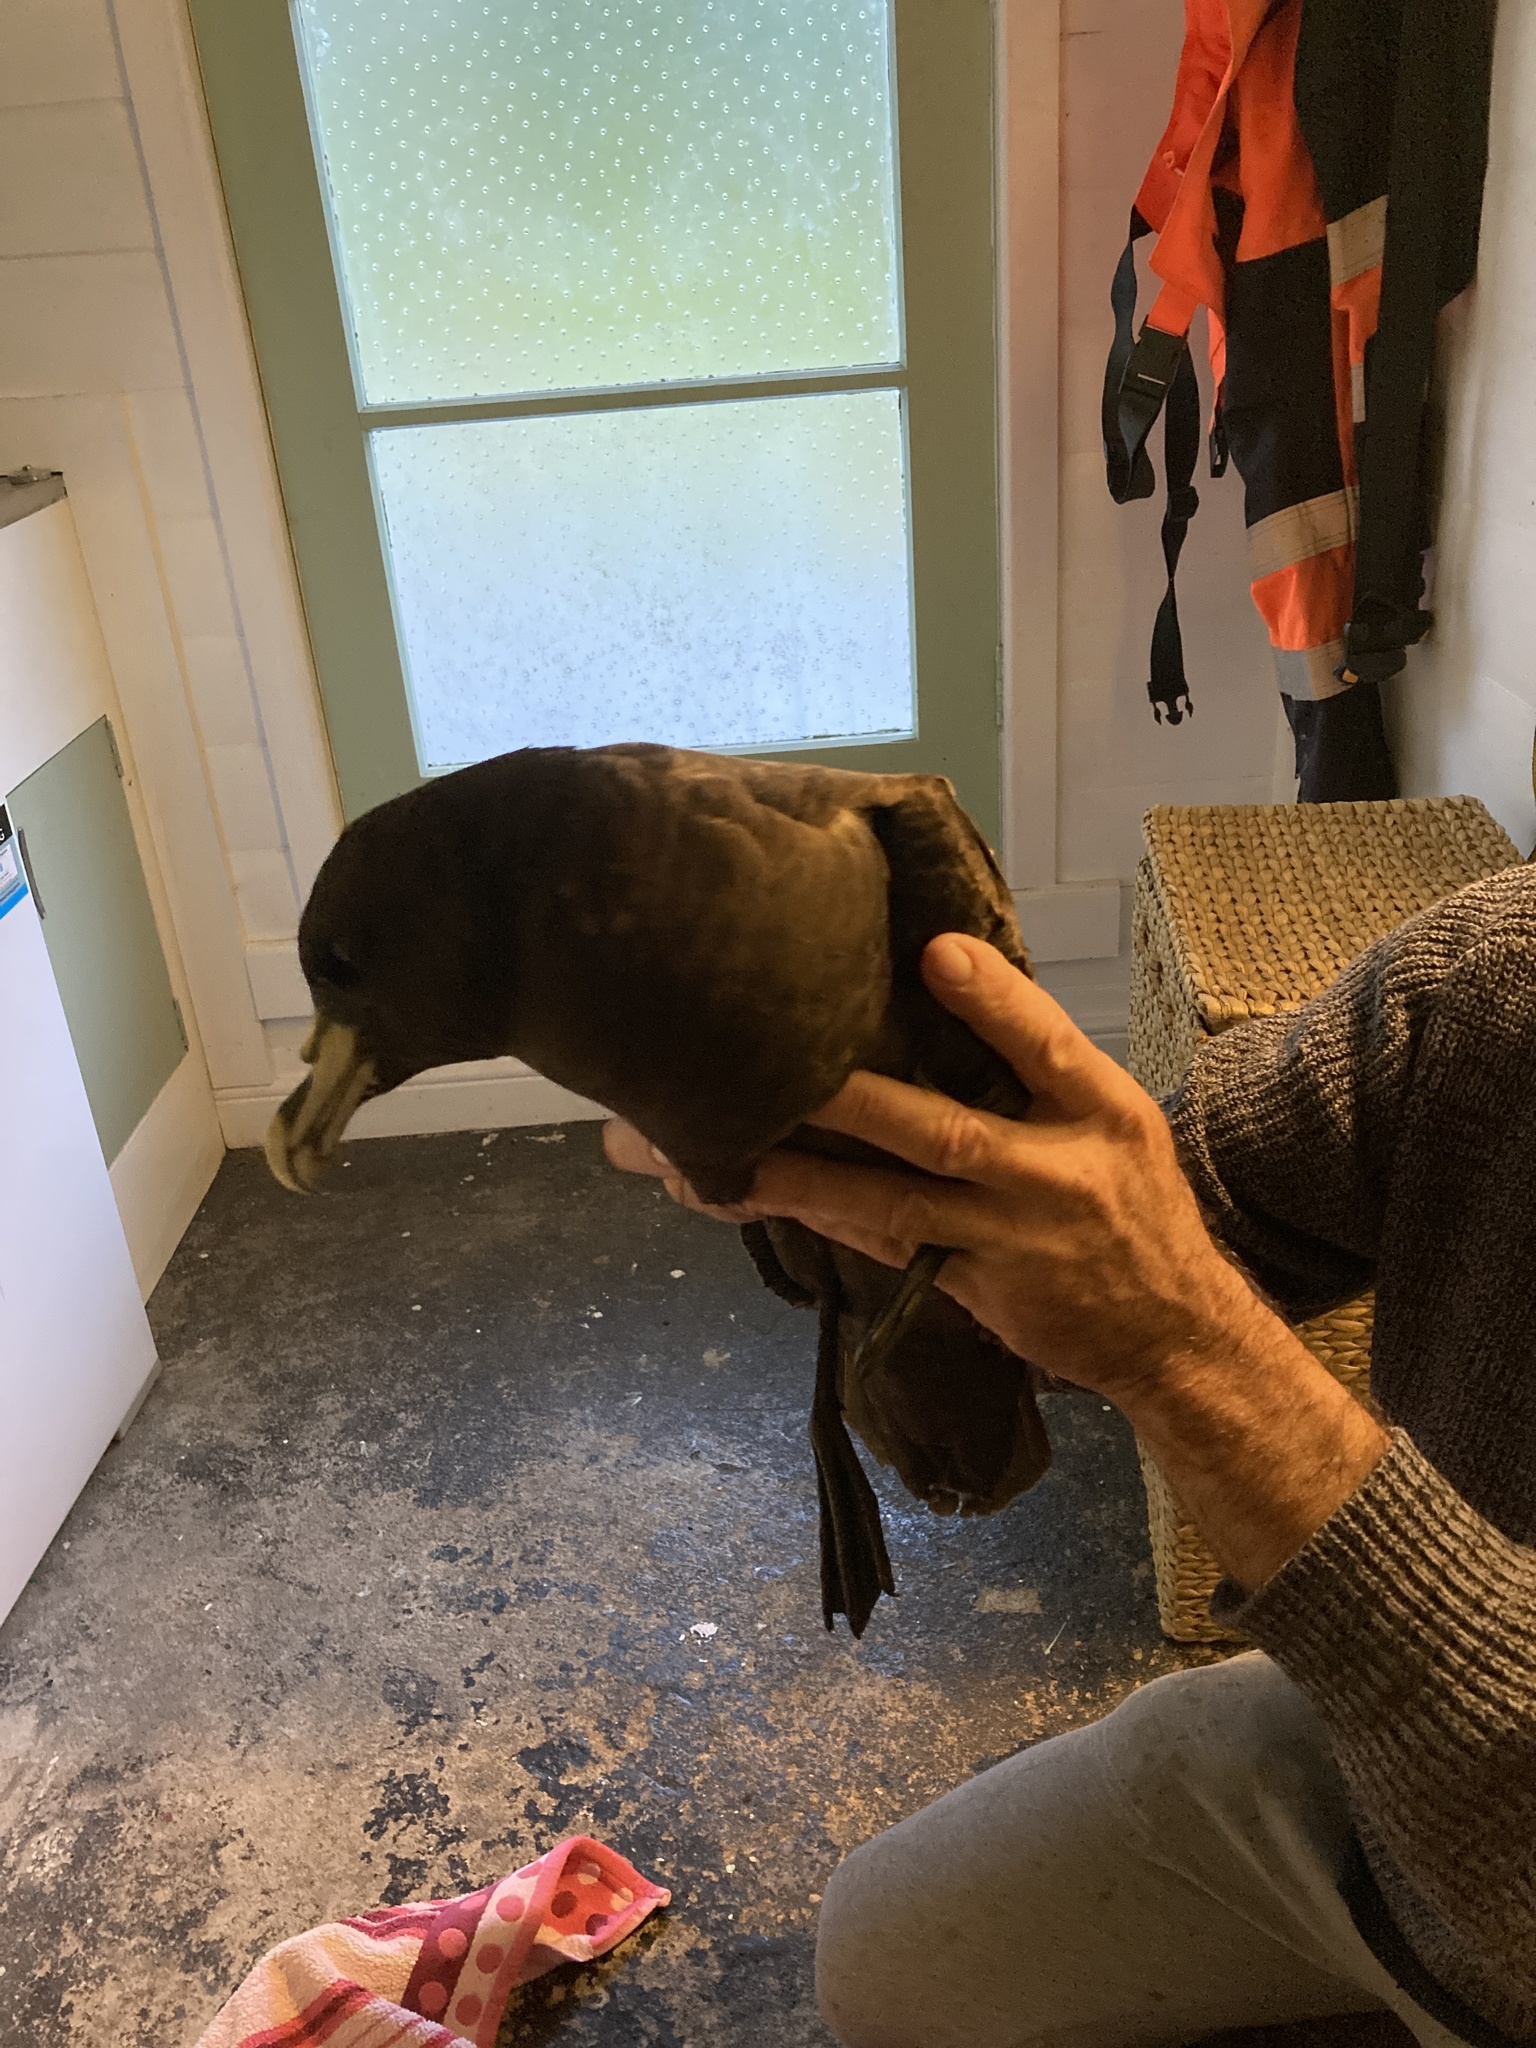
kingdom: Animalia
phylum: Chordata
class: Aves
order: Procellariiformes
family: Procellariidae
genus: Procellaria
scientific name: Procellaria aequinoctialis
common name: White-chinned petrel
